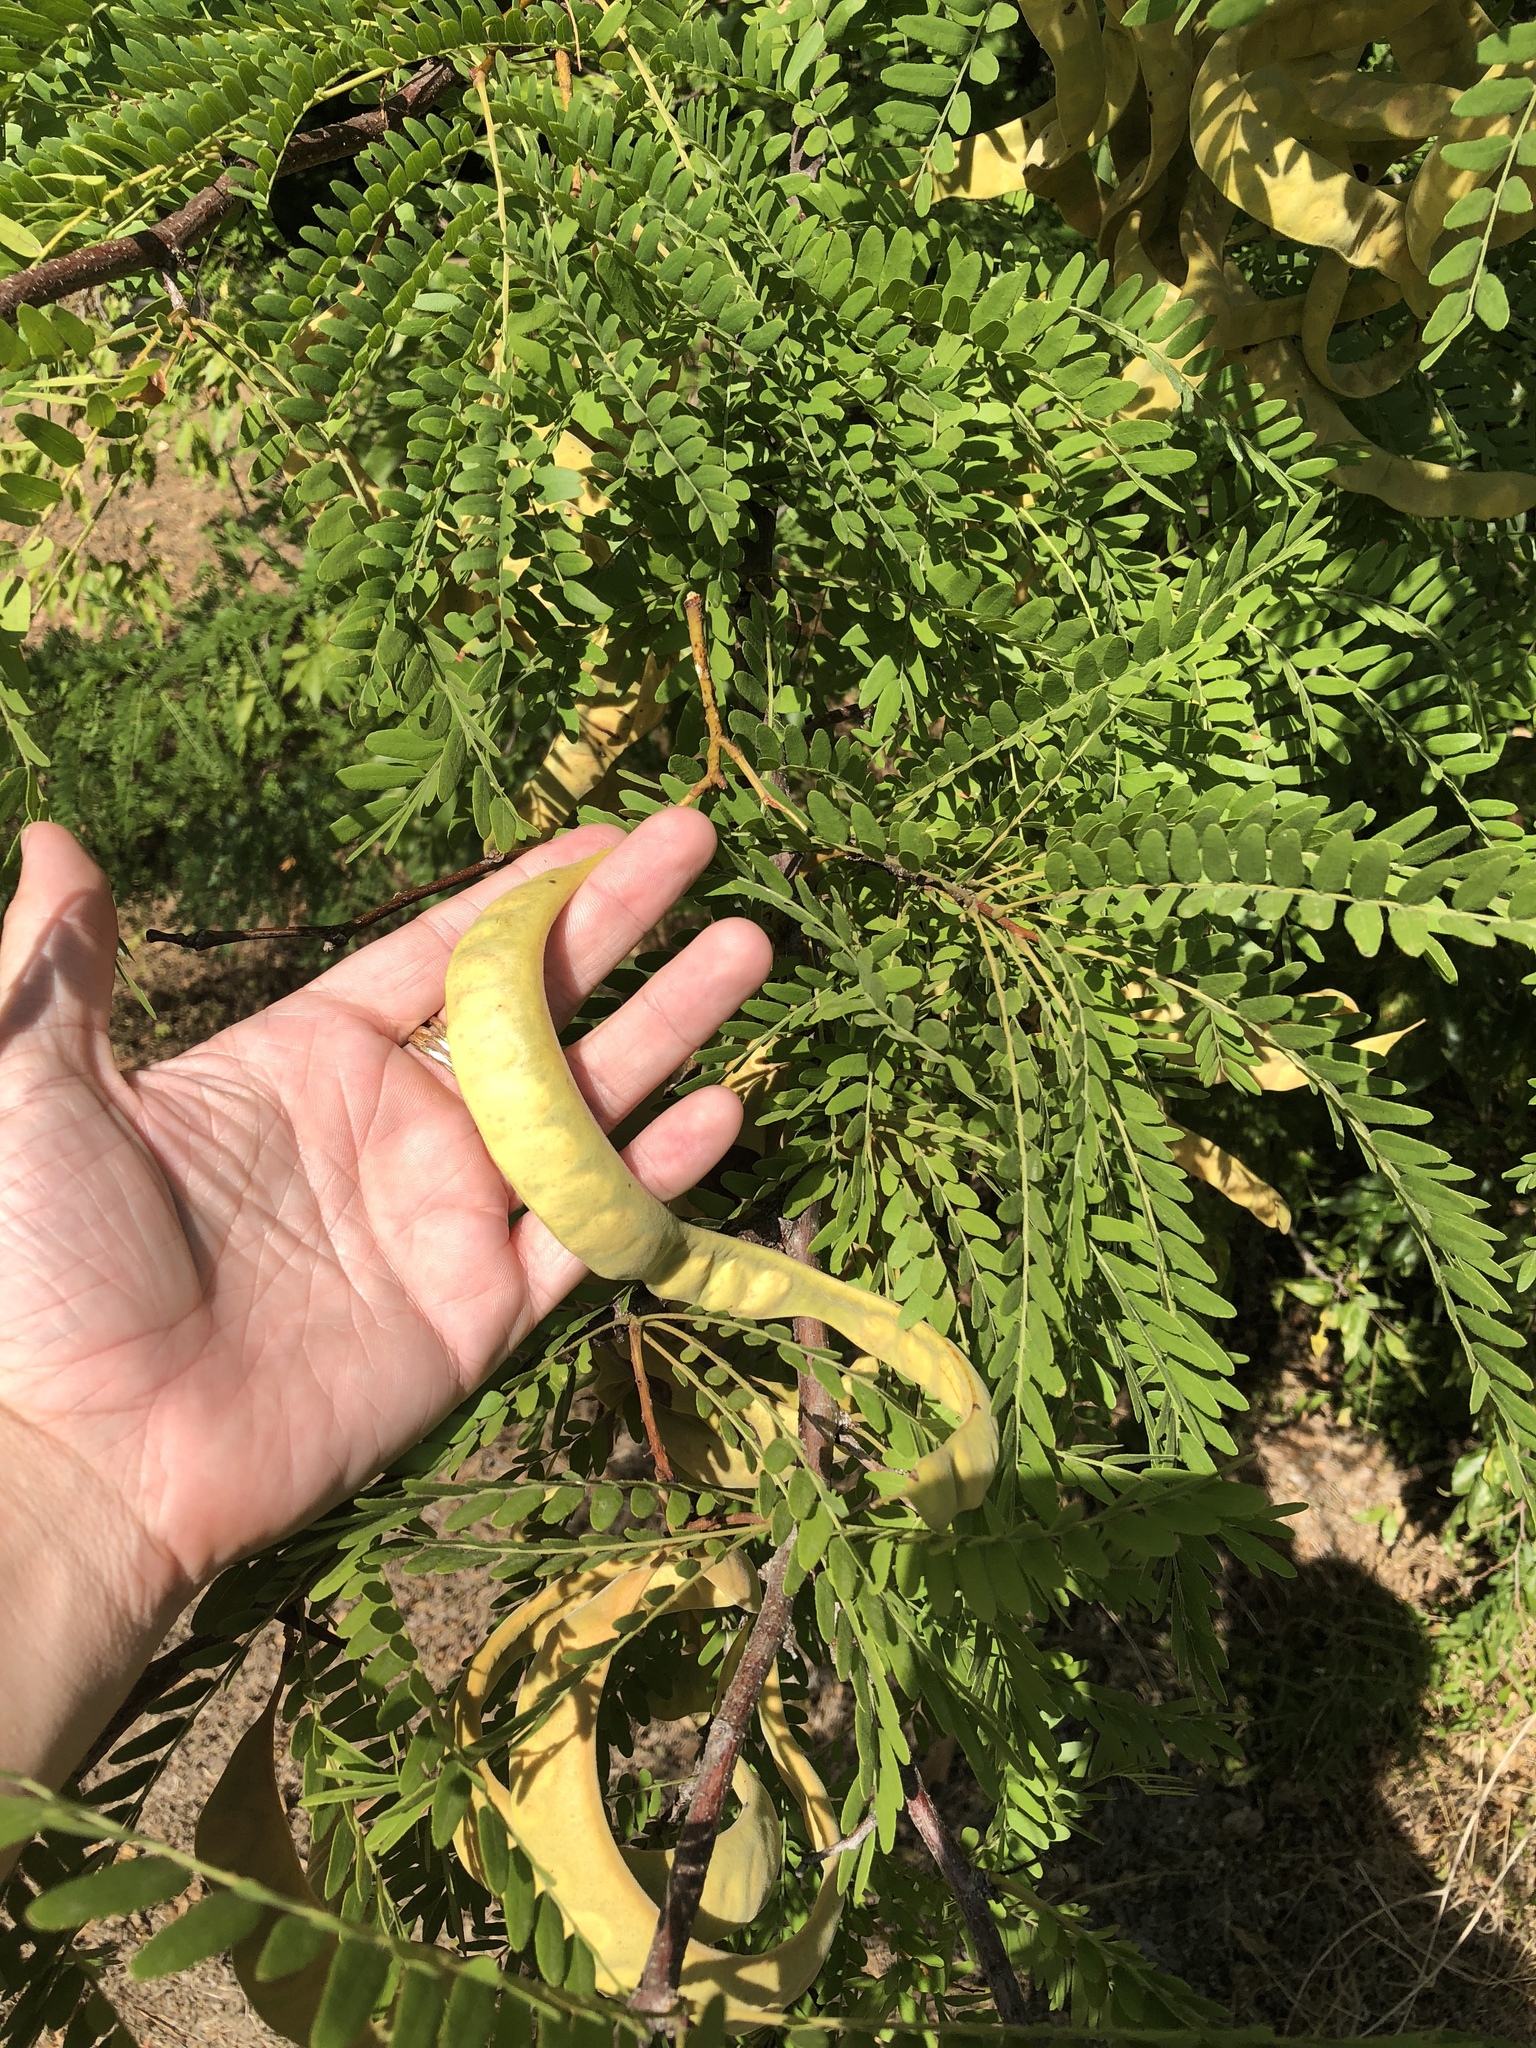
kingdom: Plantae
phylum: Tracheophyta
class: Magnoliopsida
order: Fabales
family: Fabaceae
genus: Gleditsia
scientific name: Gleditsia triacanthos
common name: Common honeylocust
